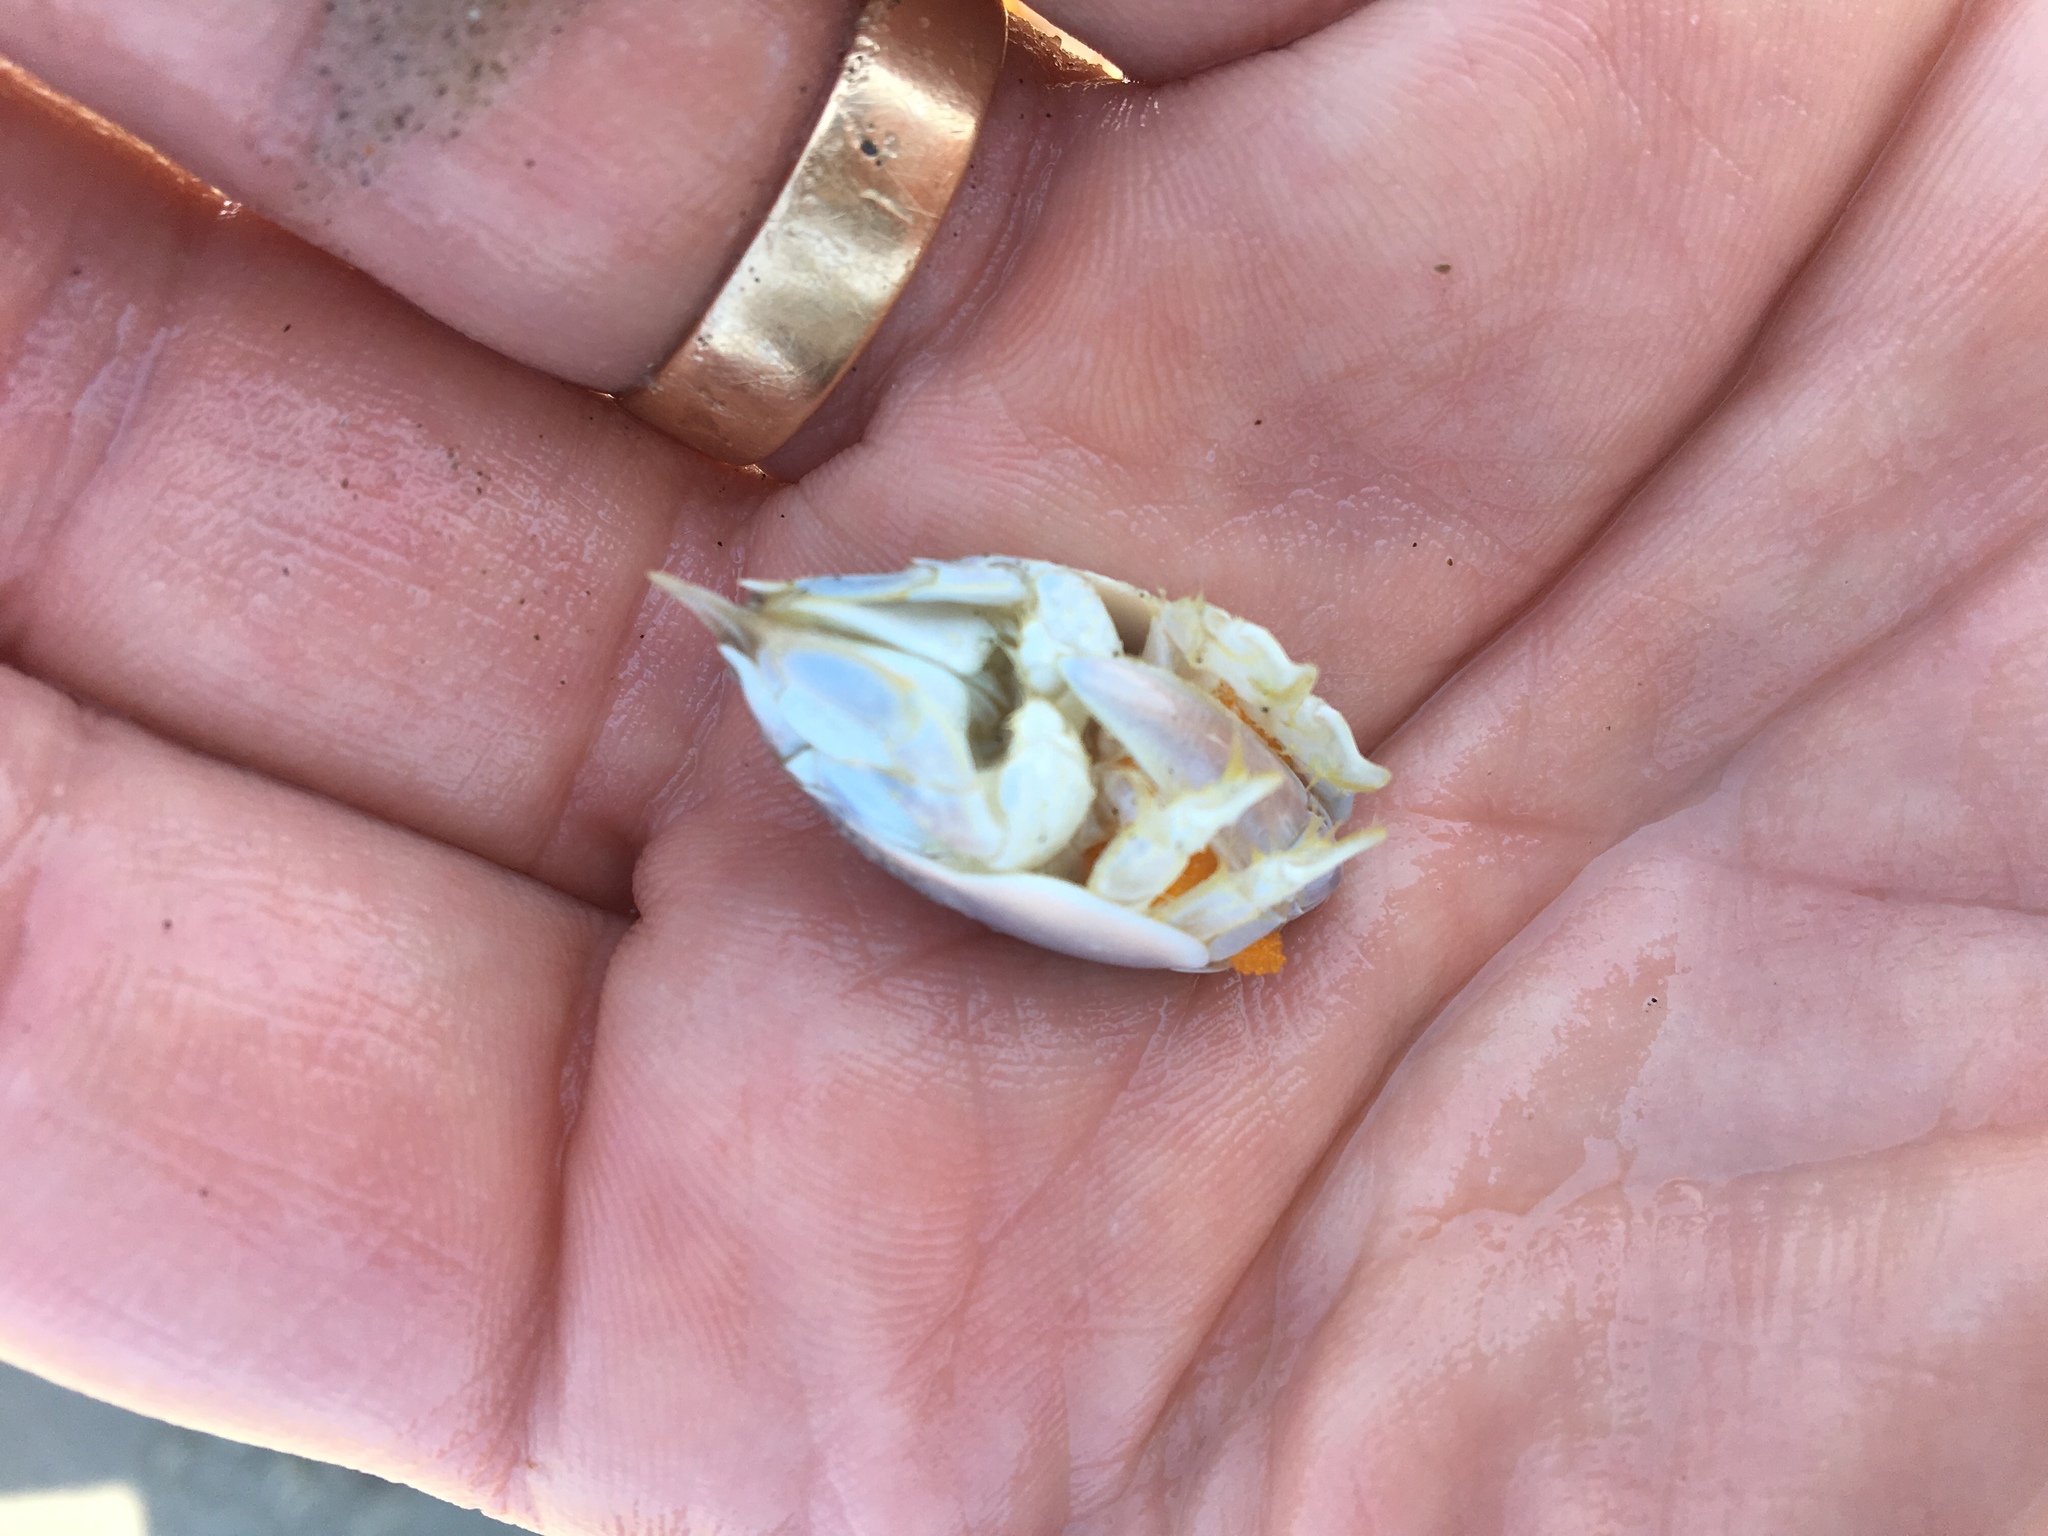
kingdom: Animalia
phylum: Arthropoda
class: Malacostraca
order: Decapoda
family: Hippidae
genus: Emerita
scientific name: Emerita talpoida
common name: Atlantic sand crab
